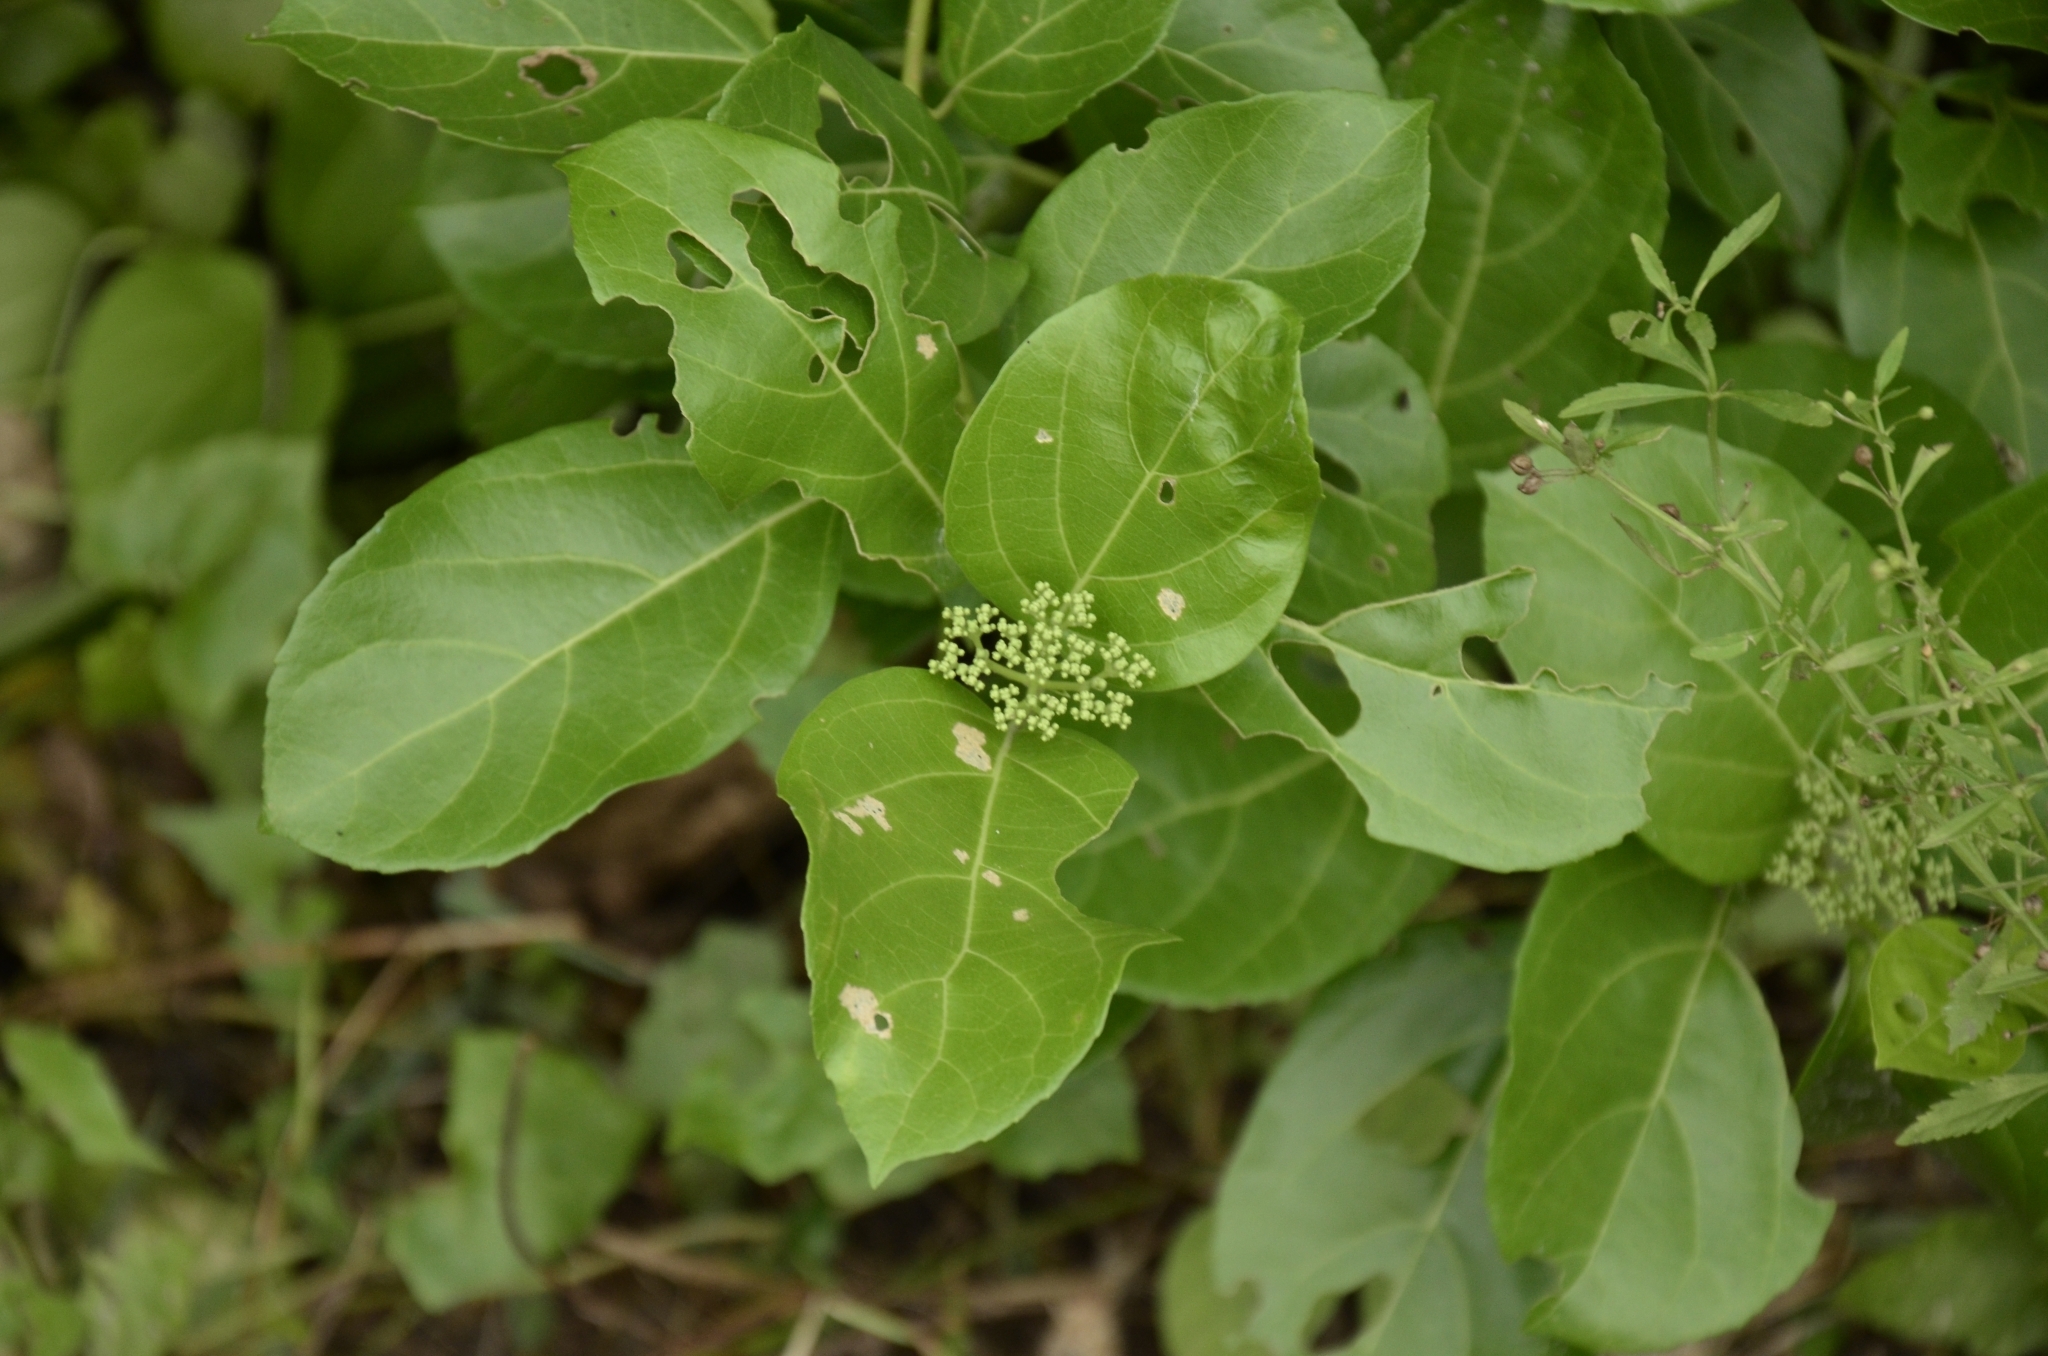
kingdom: Plantae
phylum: Tracheophyta
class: Magnoliopsida
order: Lamiales
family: Lamiaceae
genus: Premna
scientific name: Premna serratifolia
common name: Bastard guelder
